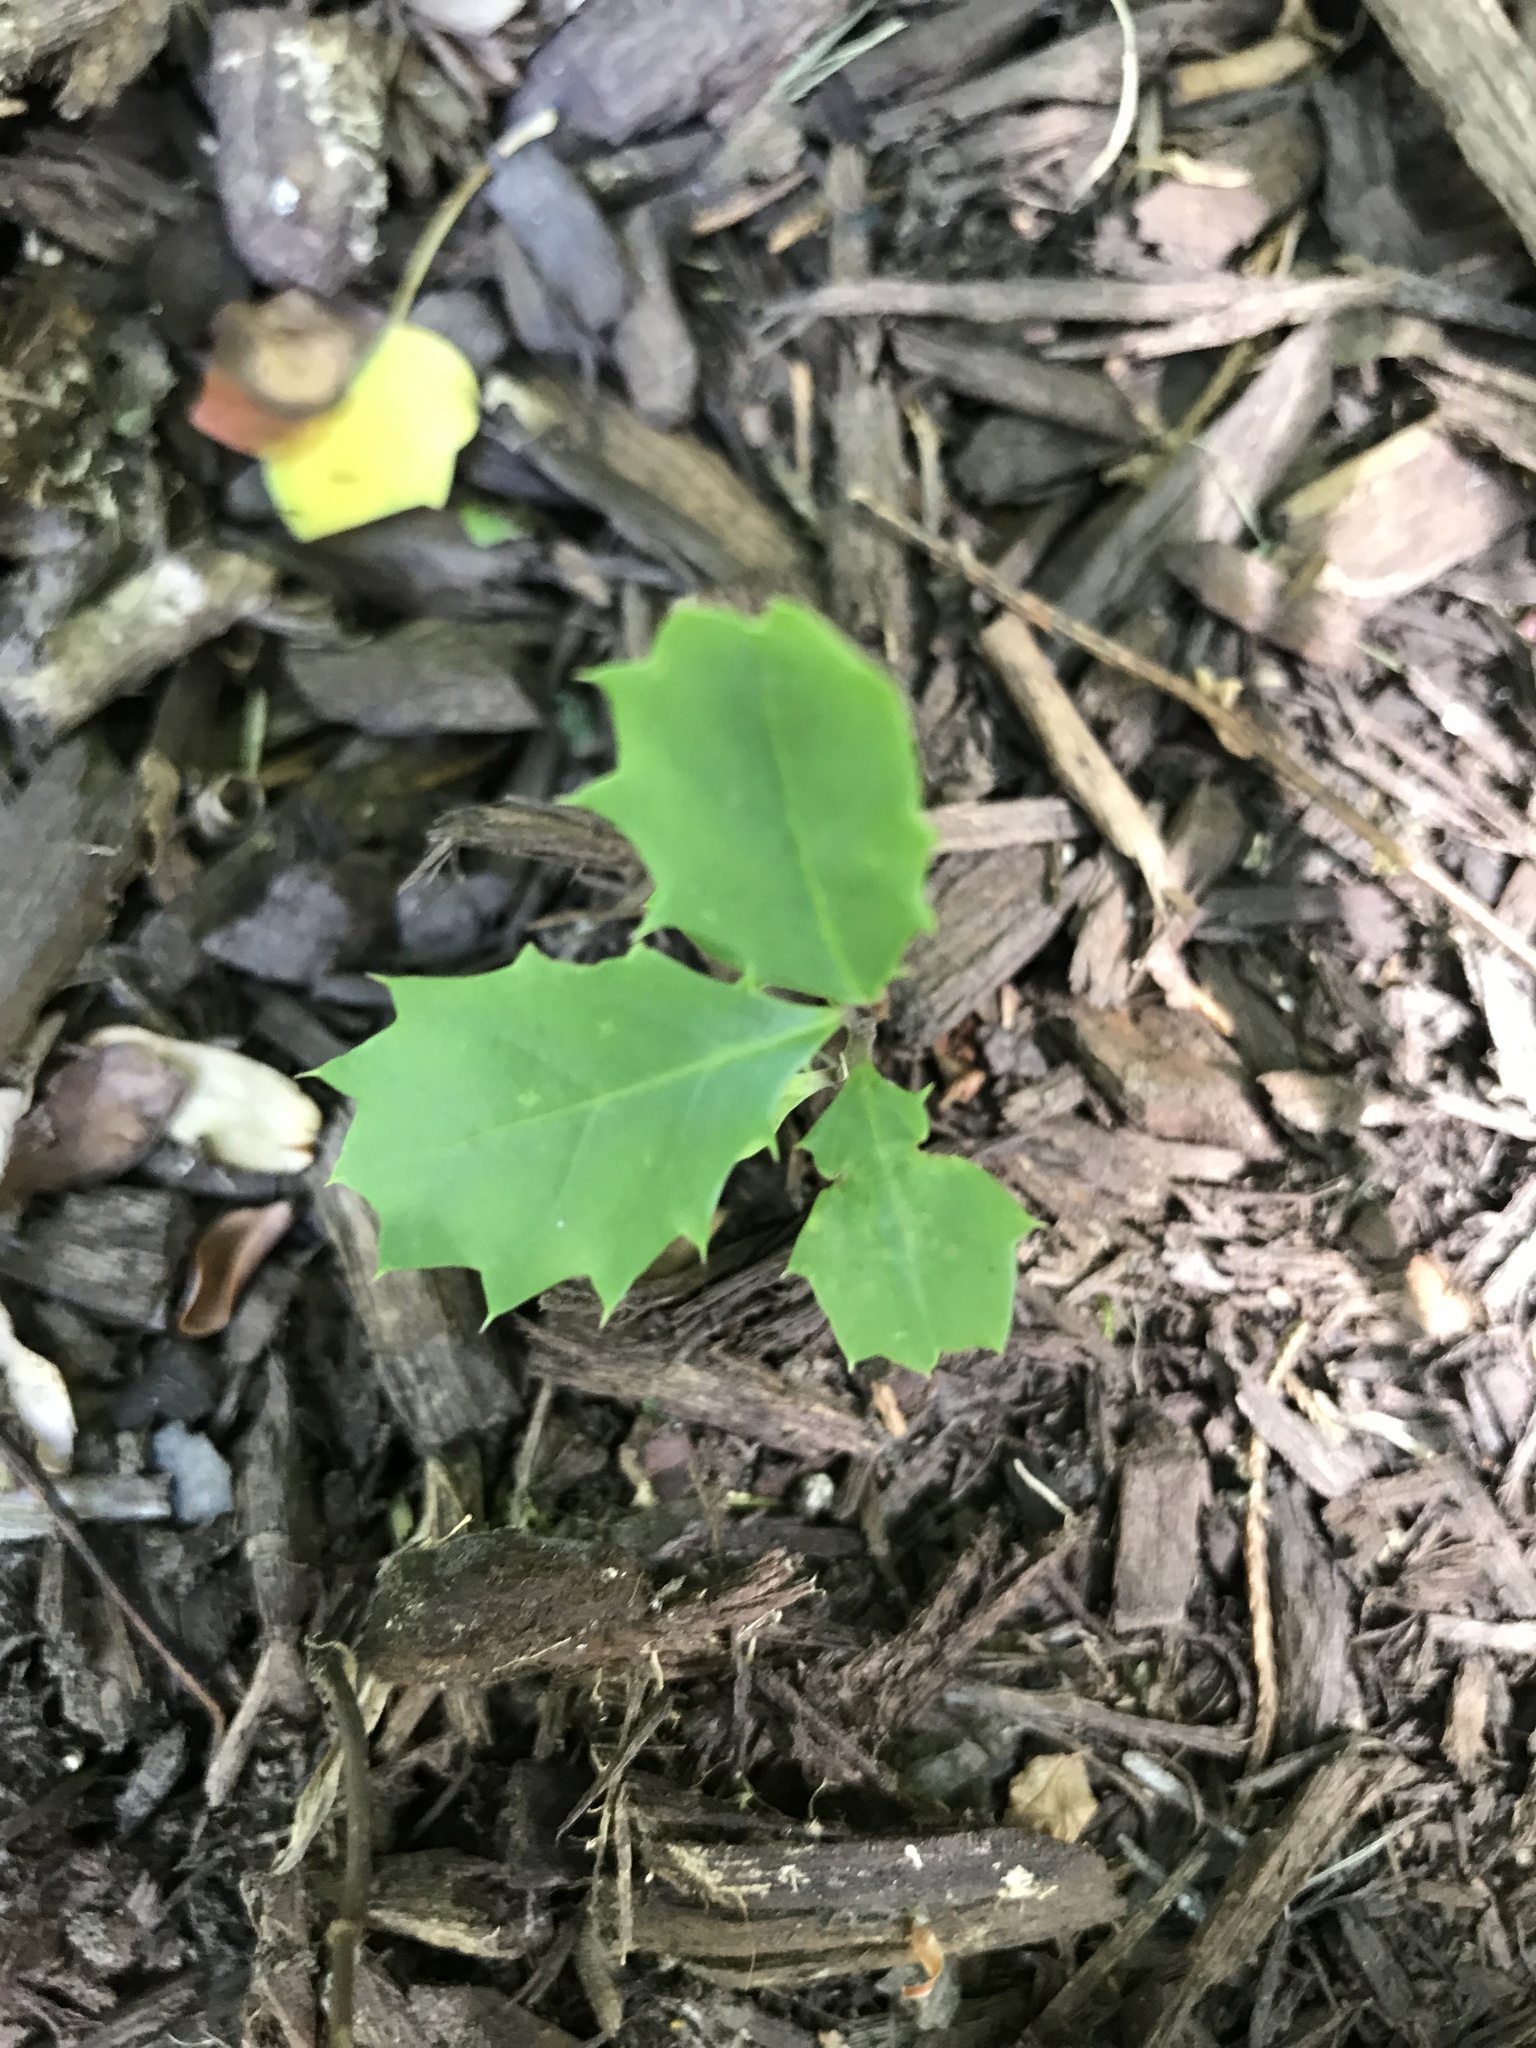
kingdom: Plantae
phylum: Tracheophyta
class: Magnoliopsida
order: Aquifoliales
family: Aquifoliaceae
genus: Ilex
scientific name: Ilex opaca
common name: American holly
